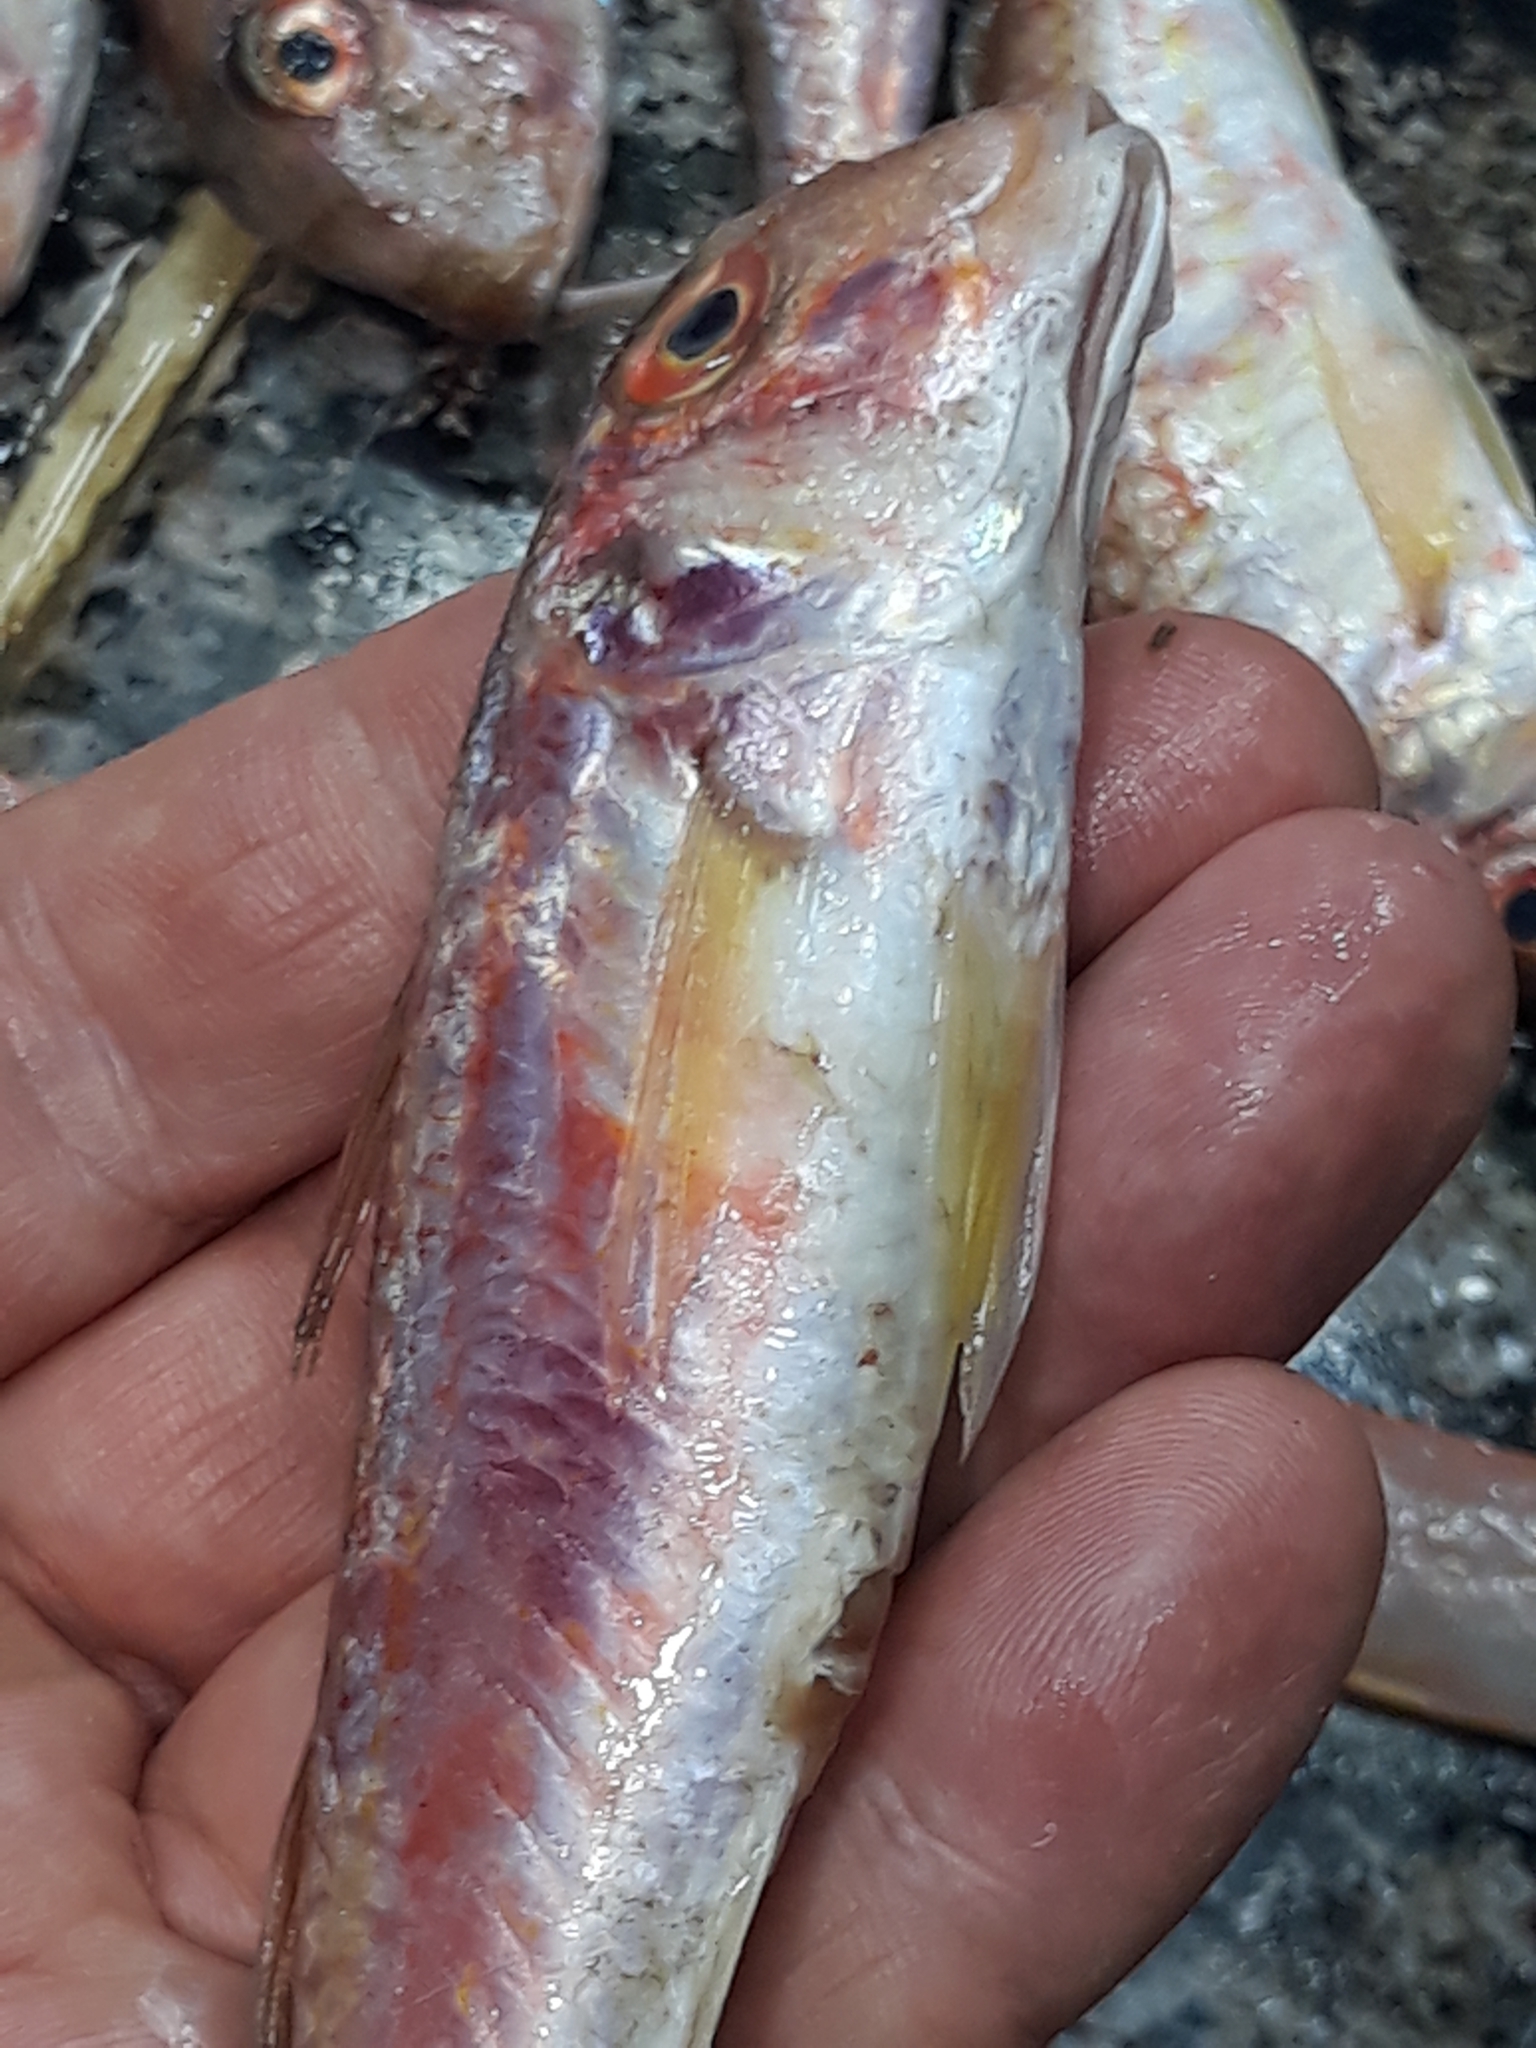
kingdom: Animalia
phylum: Chordata
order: Perciformes
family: Mullidae
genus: Mullus
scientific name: Mullus barbatus
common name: Blunt-snouted mullet
